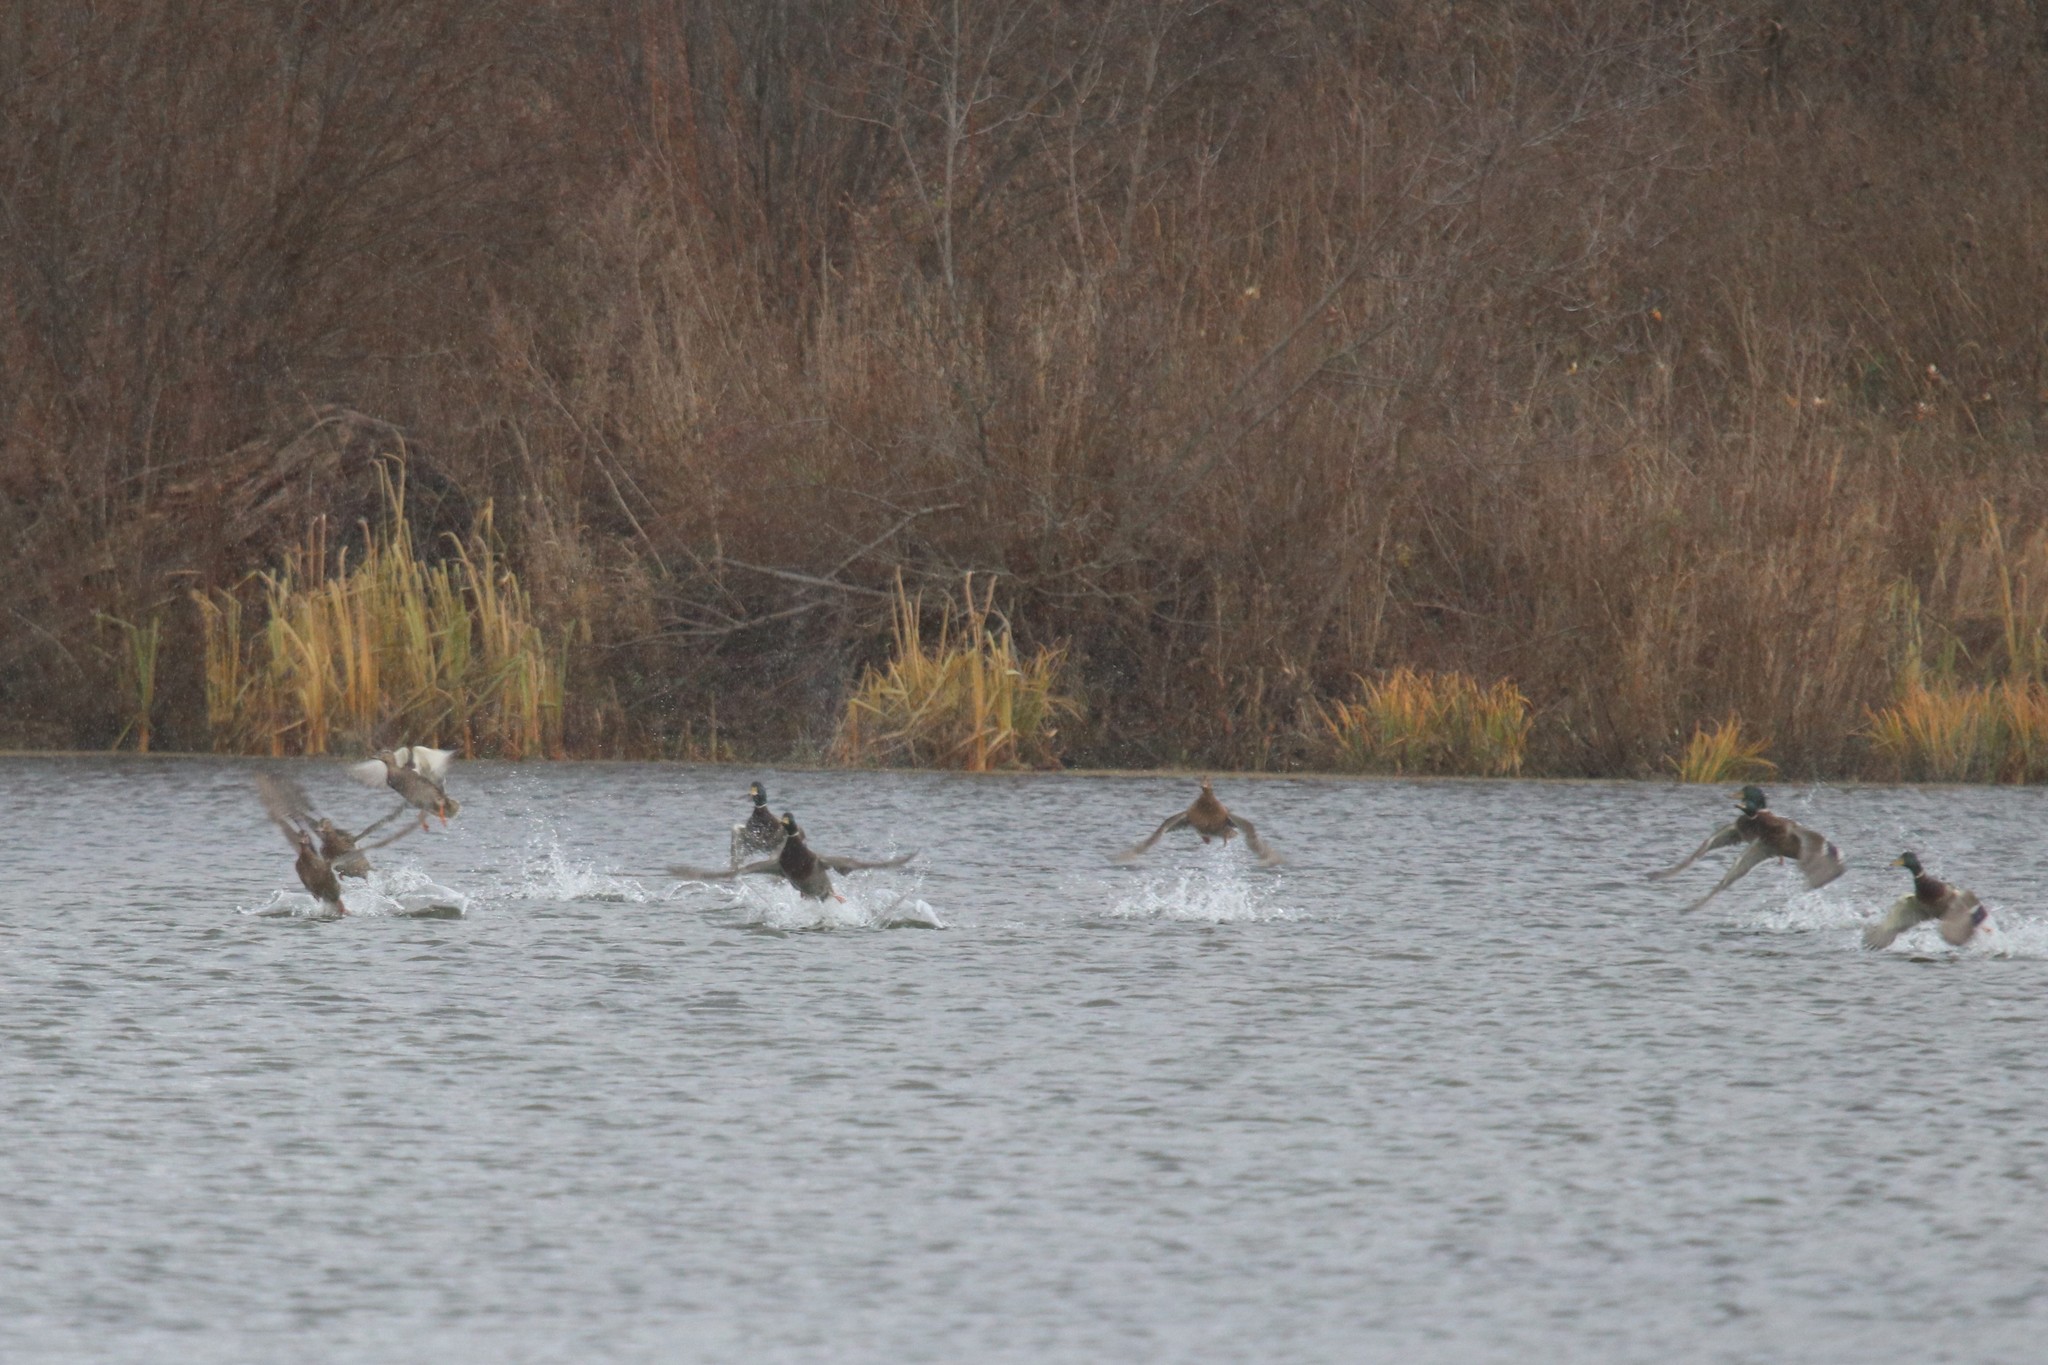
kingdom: Animalia
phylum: Chordata
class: Aves
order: Anseriformes
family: Anatidae
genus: Anas
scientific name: Anas platyrhynchos
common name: Mallard
